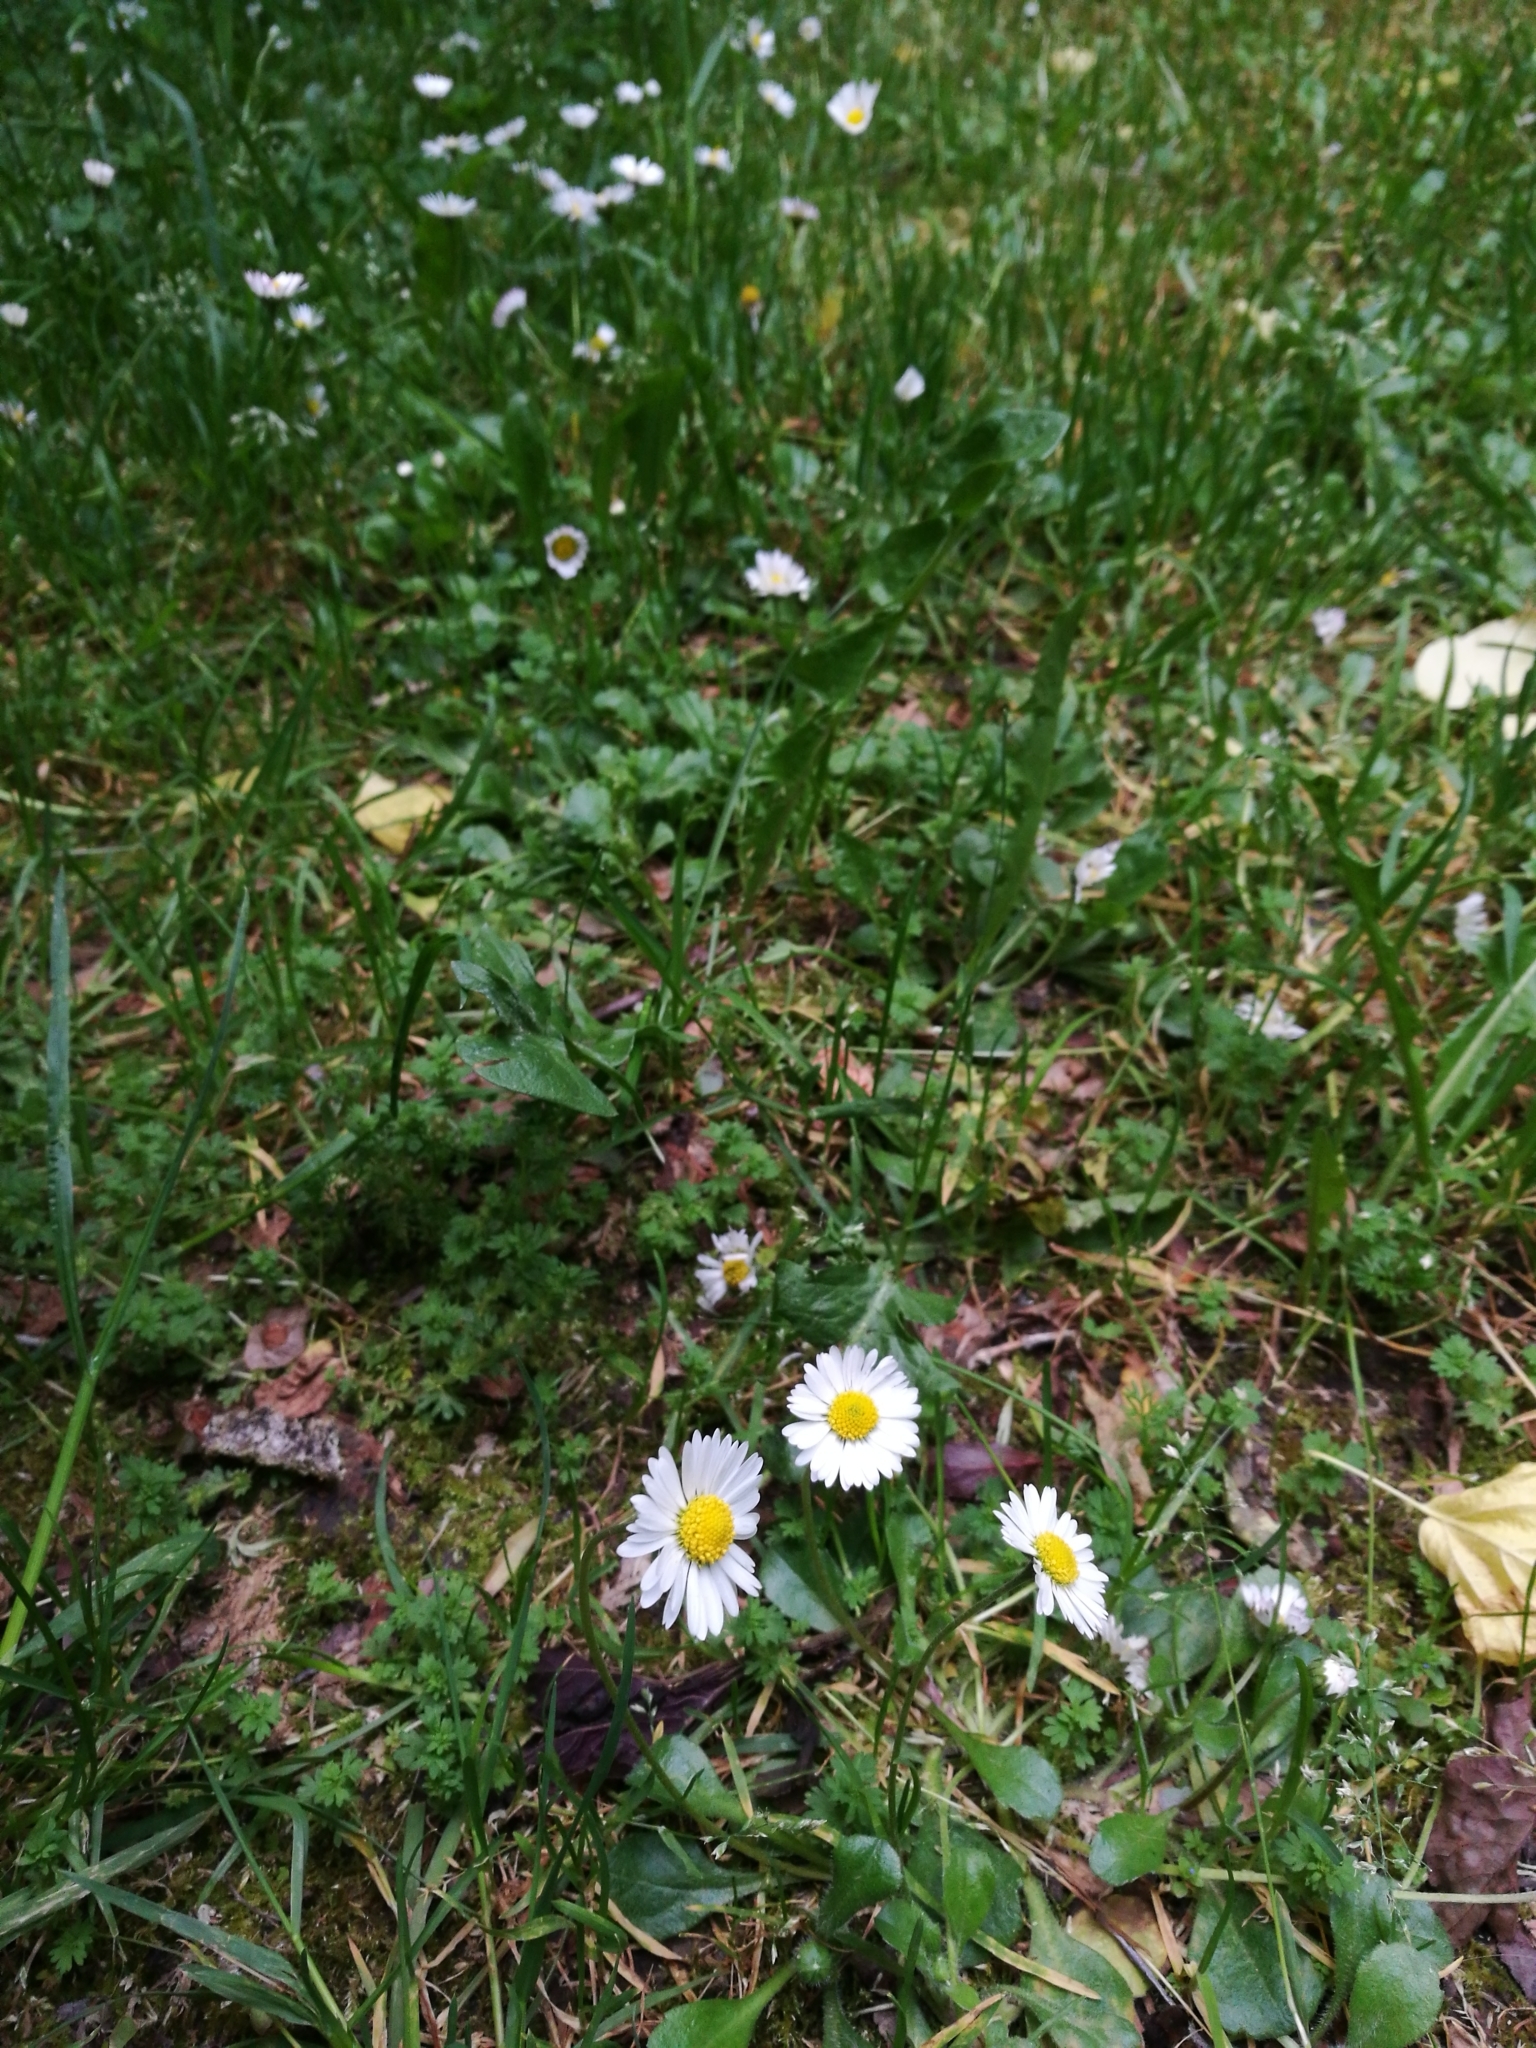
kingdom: Plantae
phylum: Tracheophyta
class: Magnoliopsida
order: Asterales
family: Asteraceae
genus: Bellis
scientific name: Bellis perennis
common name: Lawndaisy
